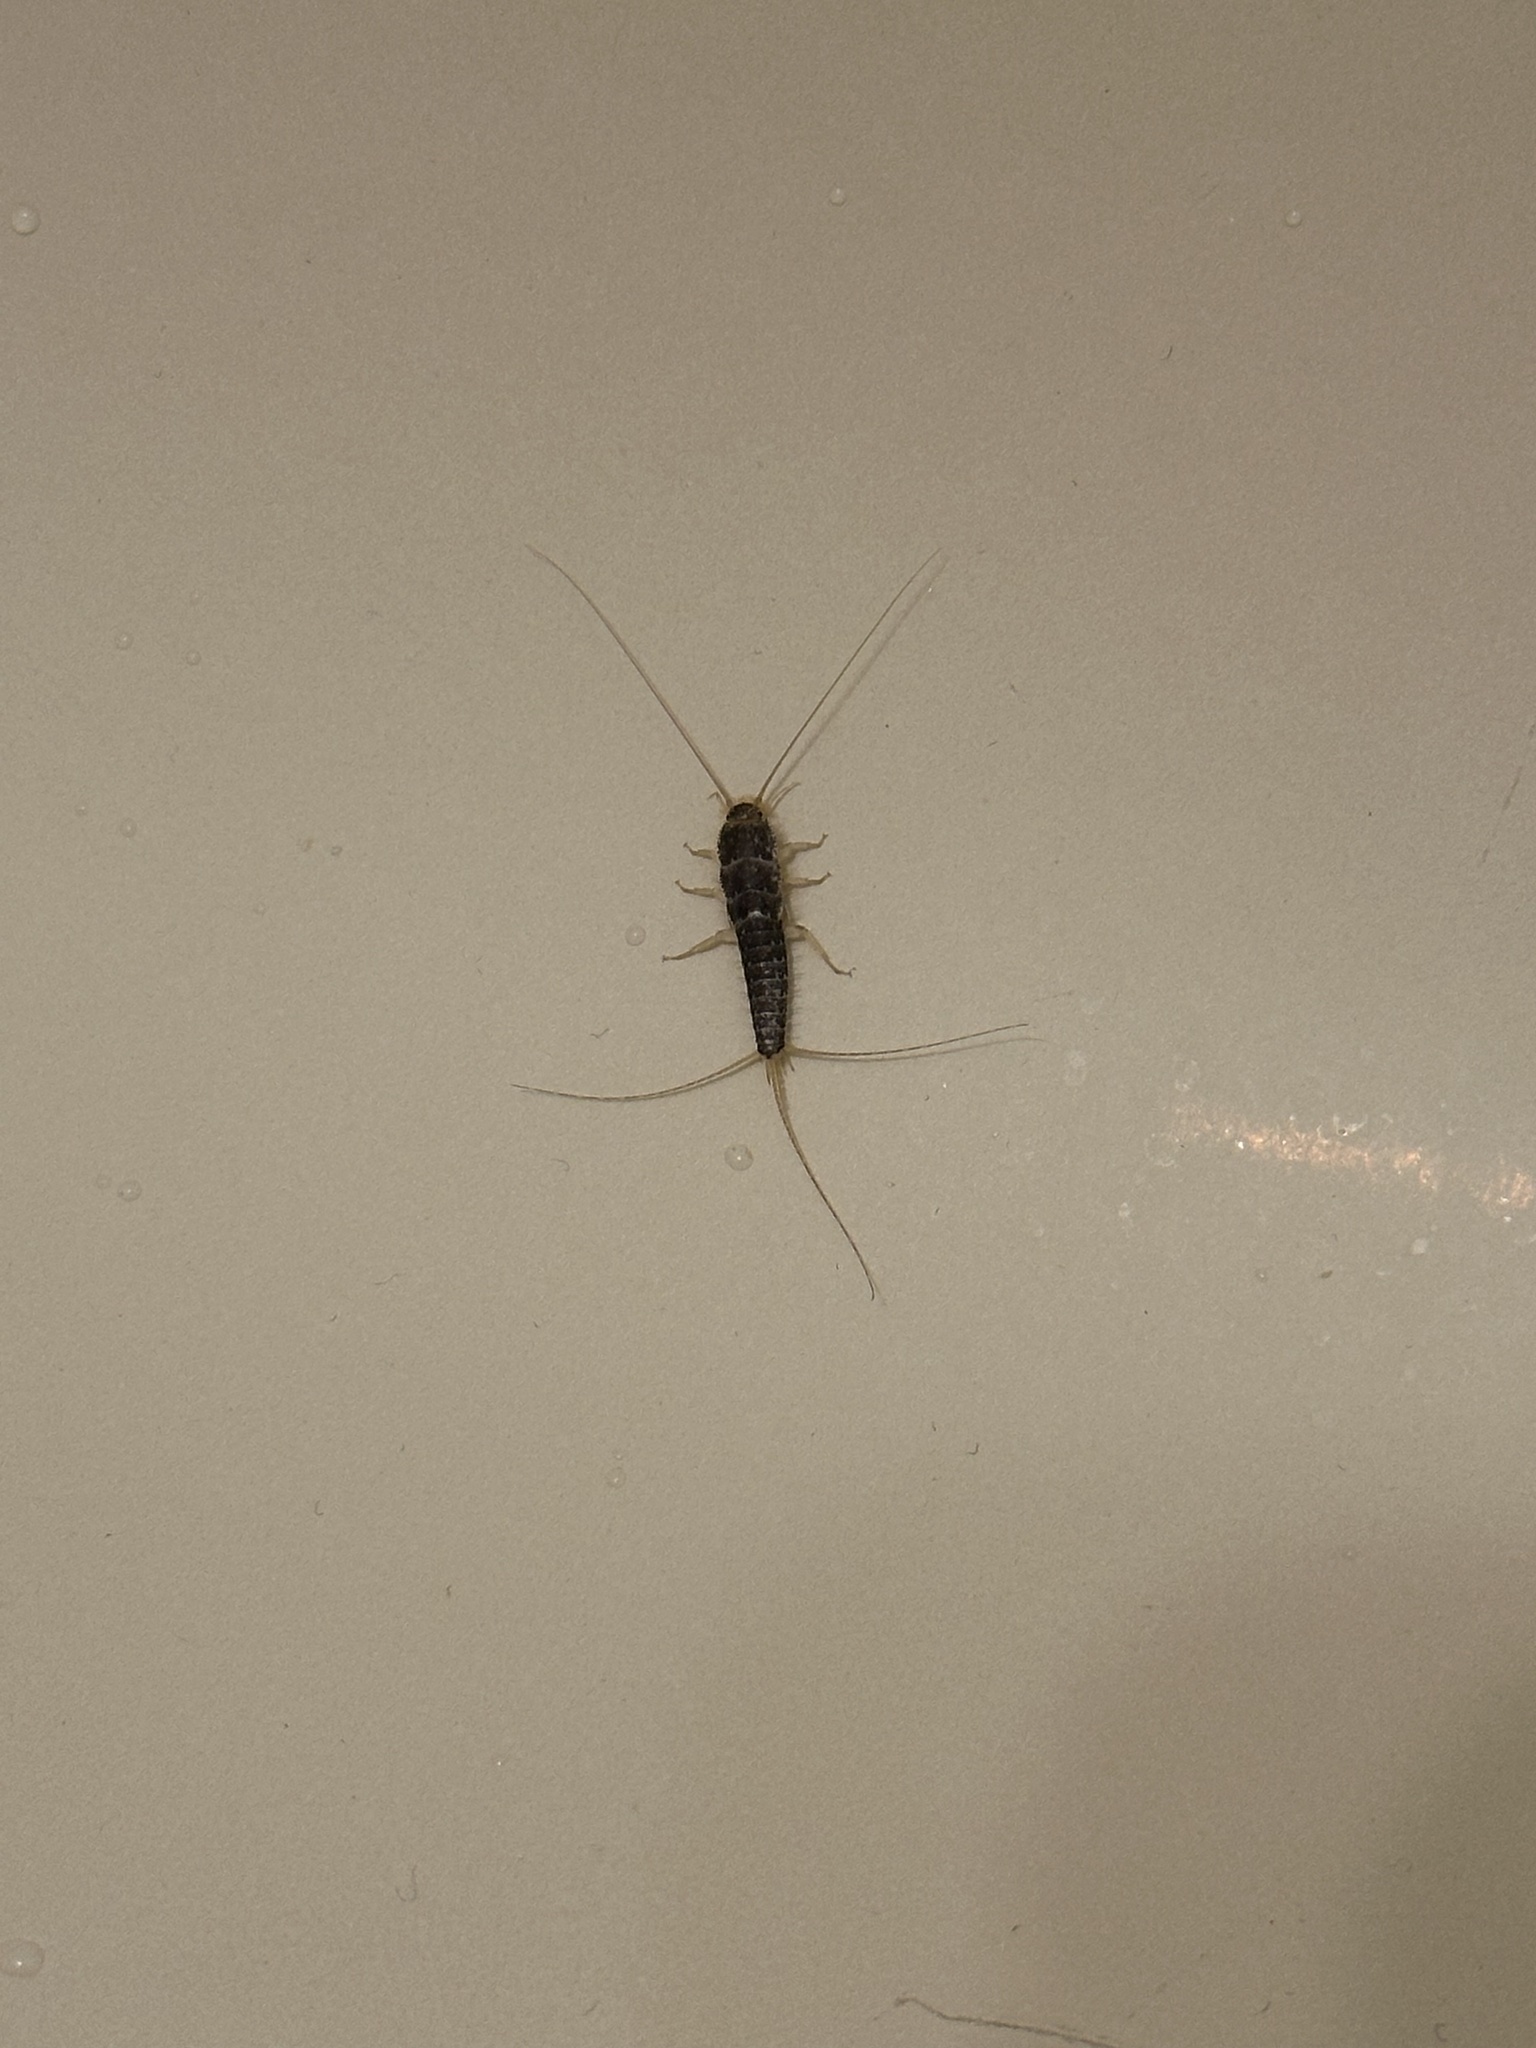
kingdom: Animalia
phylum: Arthropoda
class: Insecta
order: Zygentoma
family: Lepismatidae
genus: Ctenolepisma
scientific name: Ctenolepisma longicaudatum
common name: Silverfish
